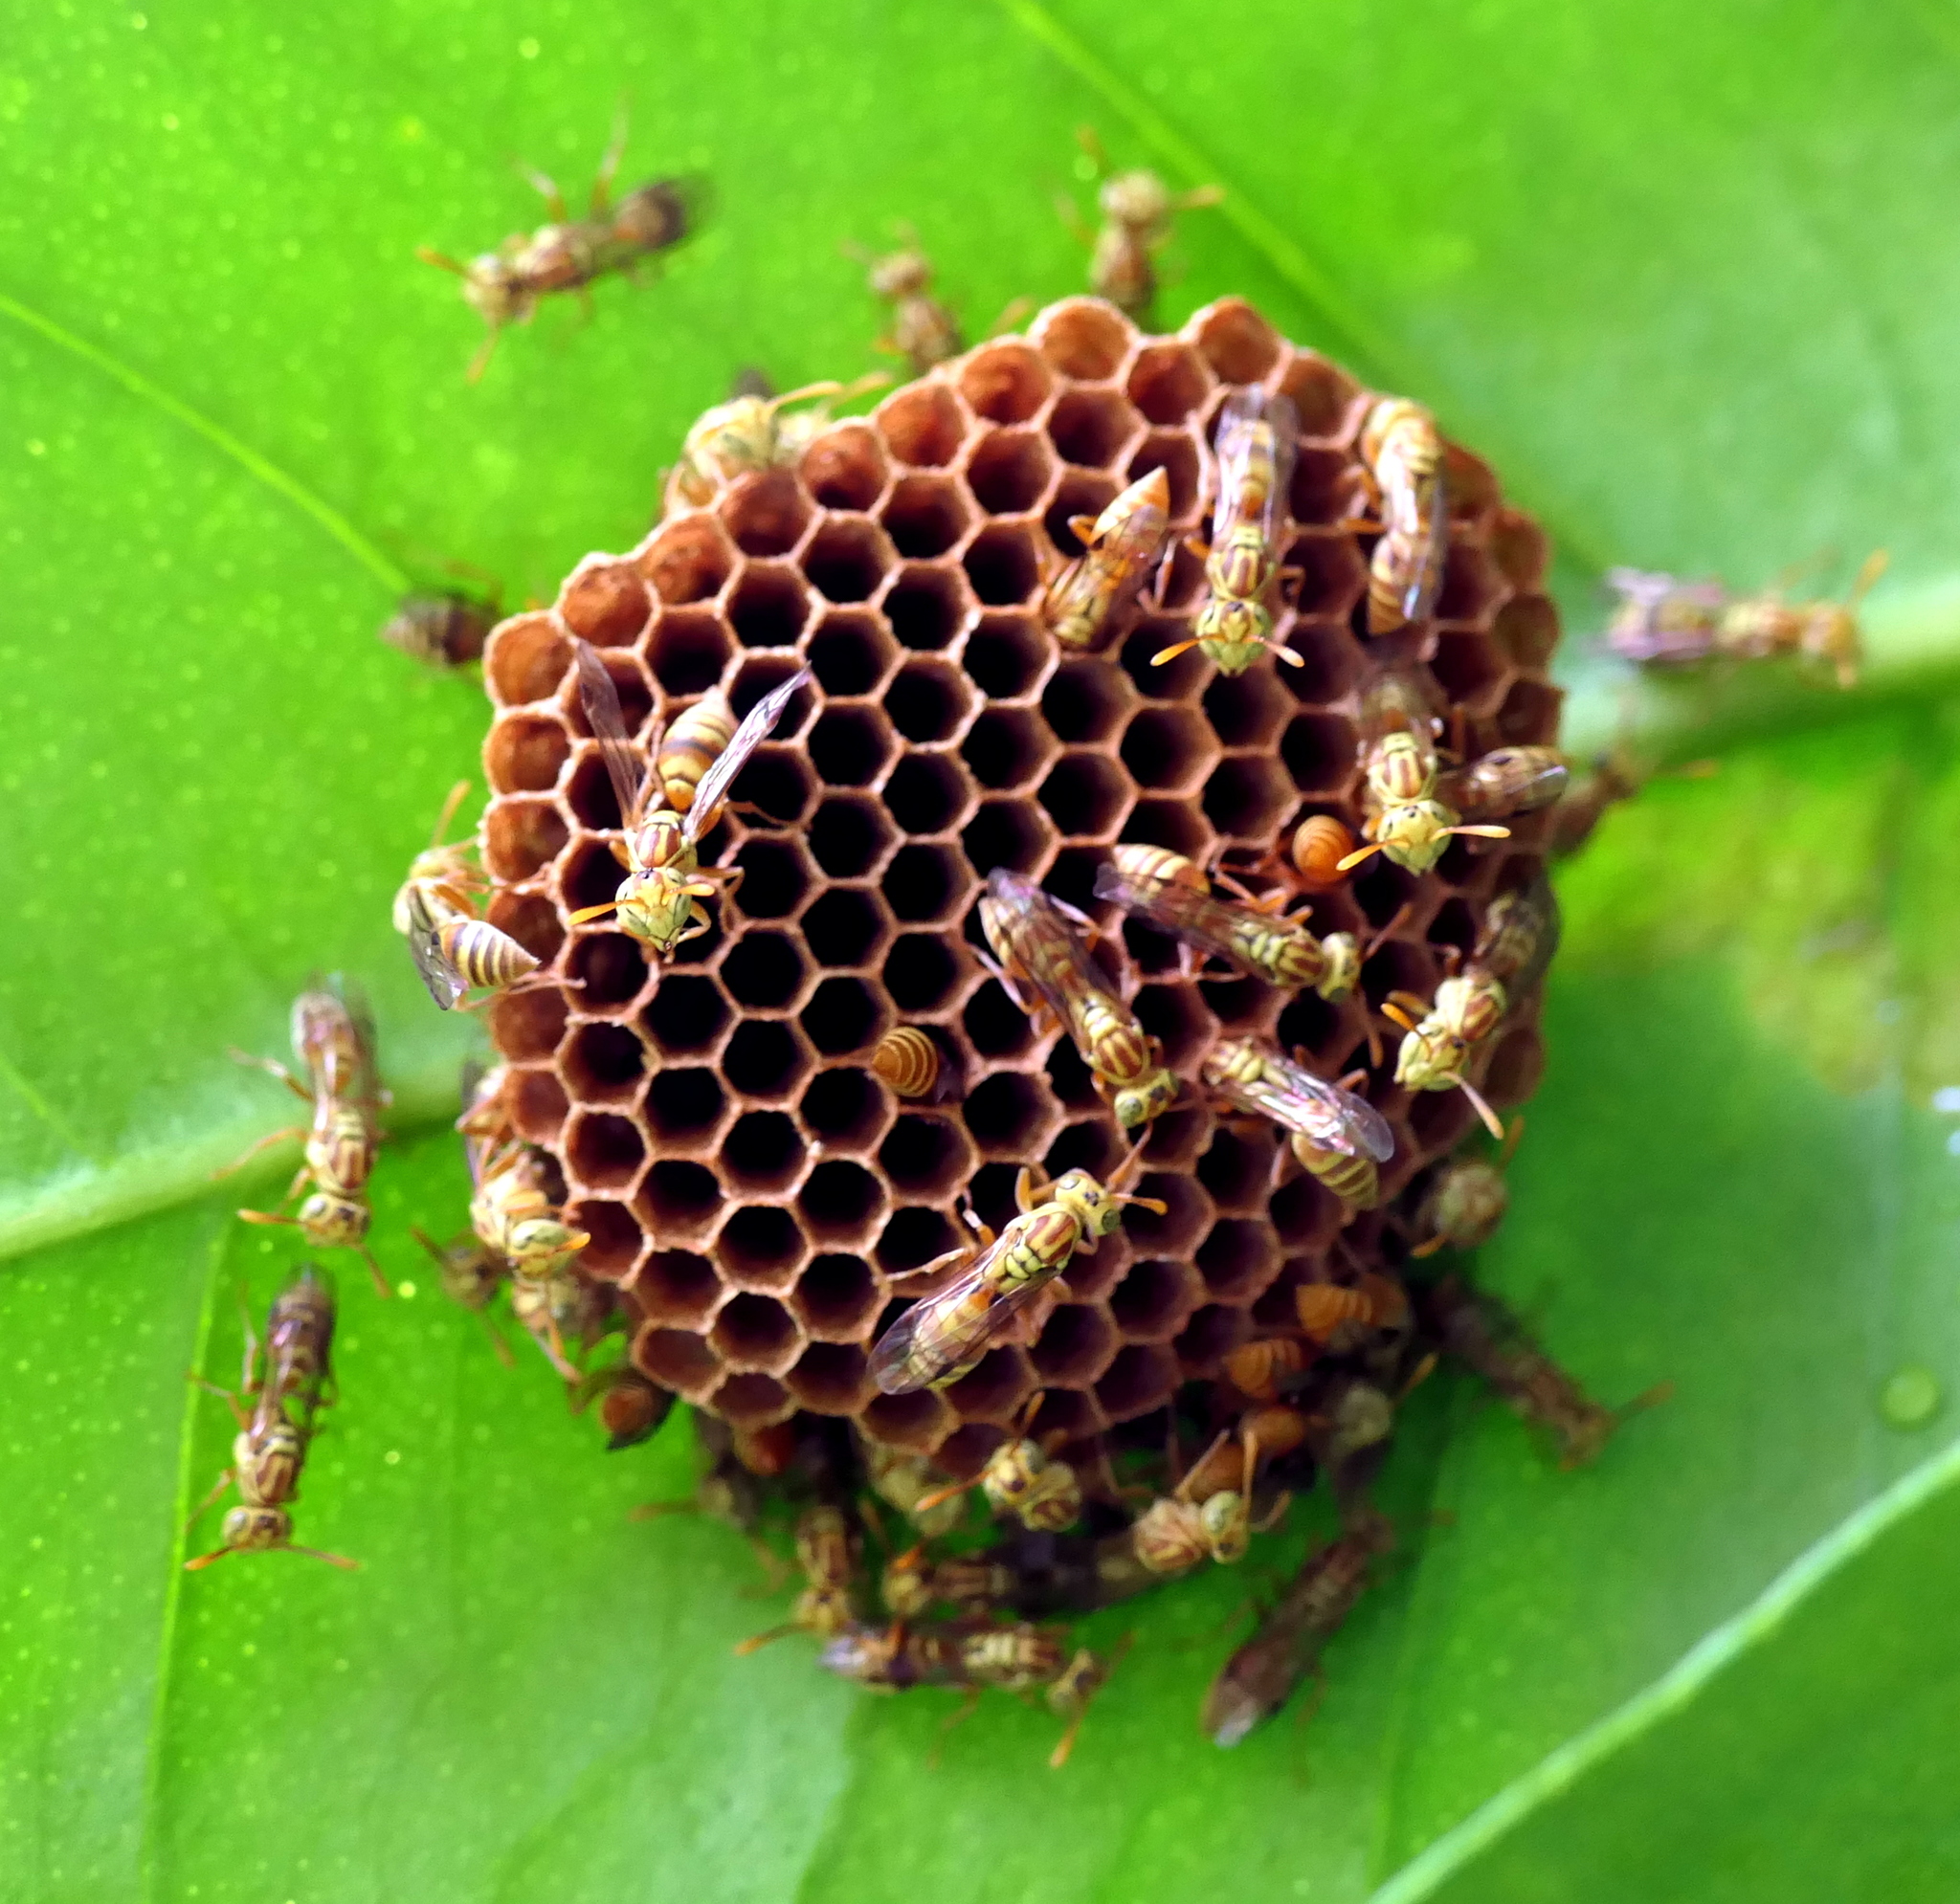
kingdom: Animalia
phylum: Arthropoda
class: Insecta
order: Hymenoptera
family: Vespidae
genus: Protopolybia
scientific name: Protopolybia potiguara
